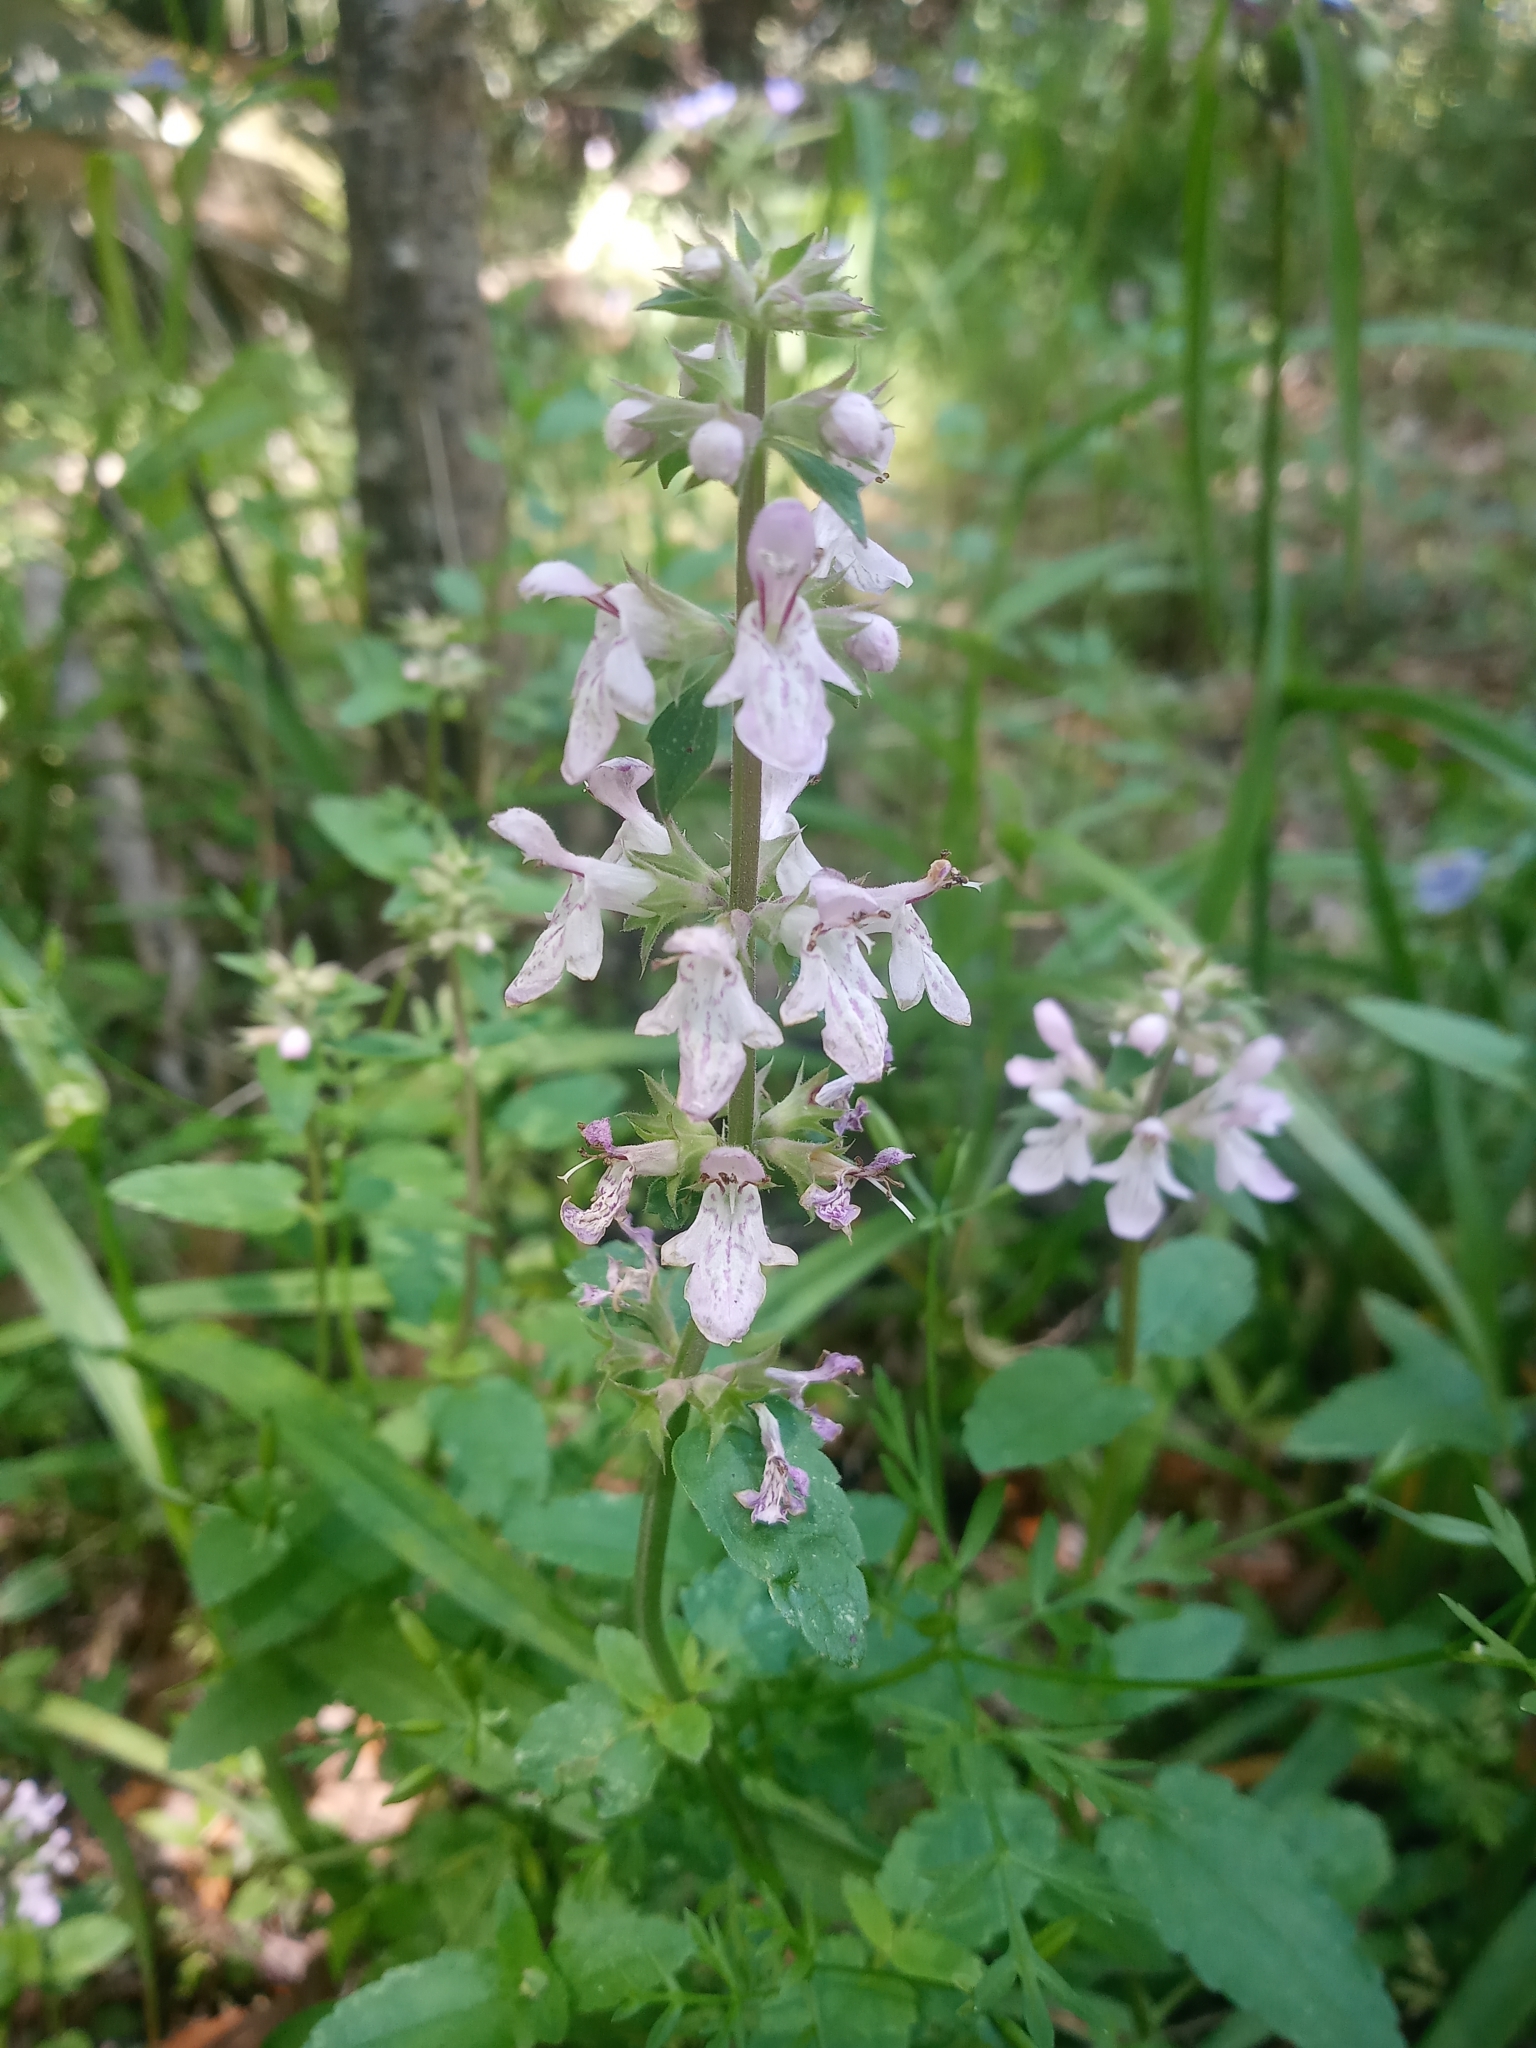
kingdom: Plantae
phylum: Tracheophyta
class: Magnoliopsida
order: Lamiales
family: Lamiaceae
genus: Stachys
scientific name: Stachys floridana
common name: Florida betony
